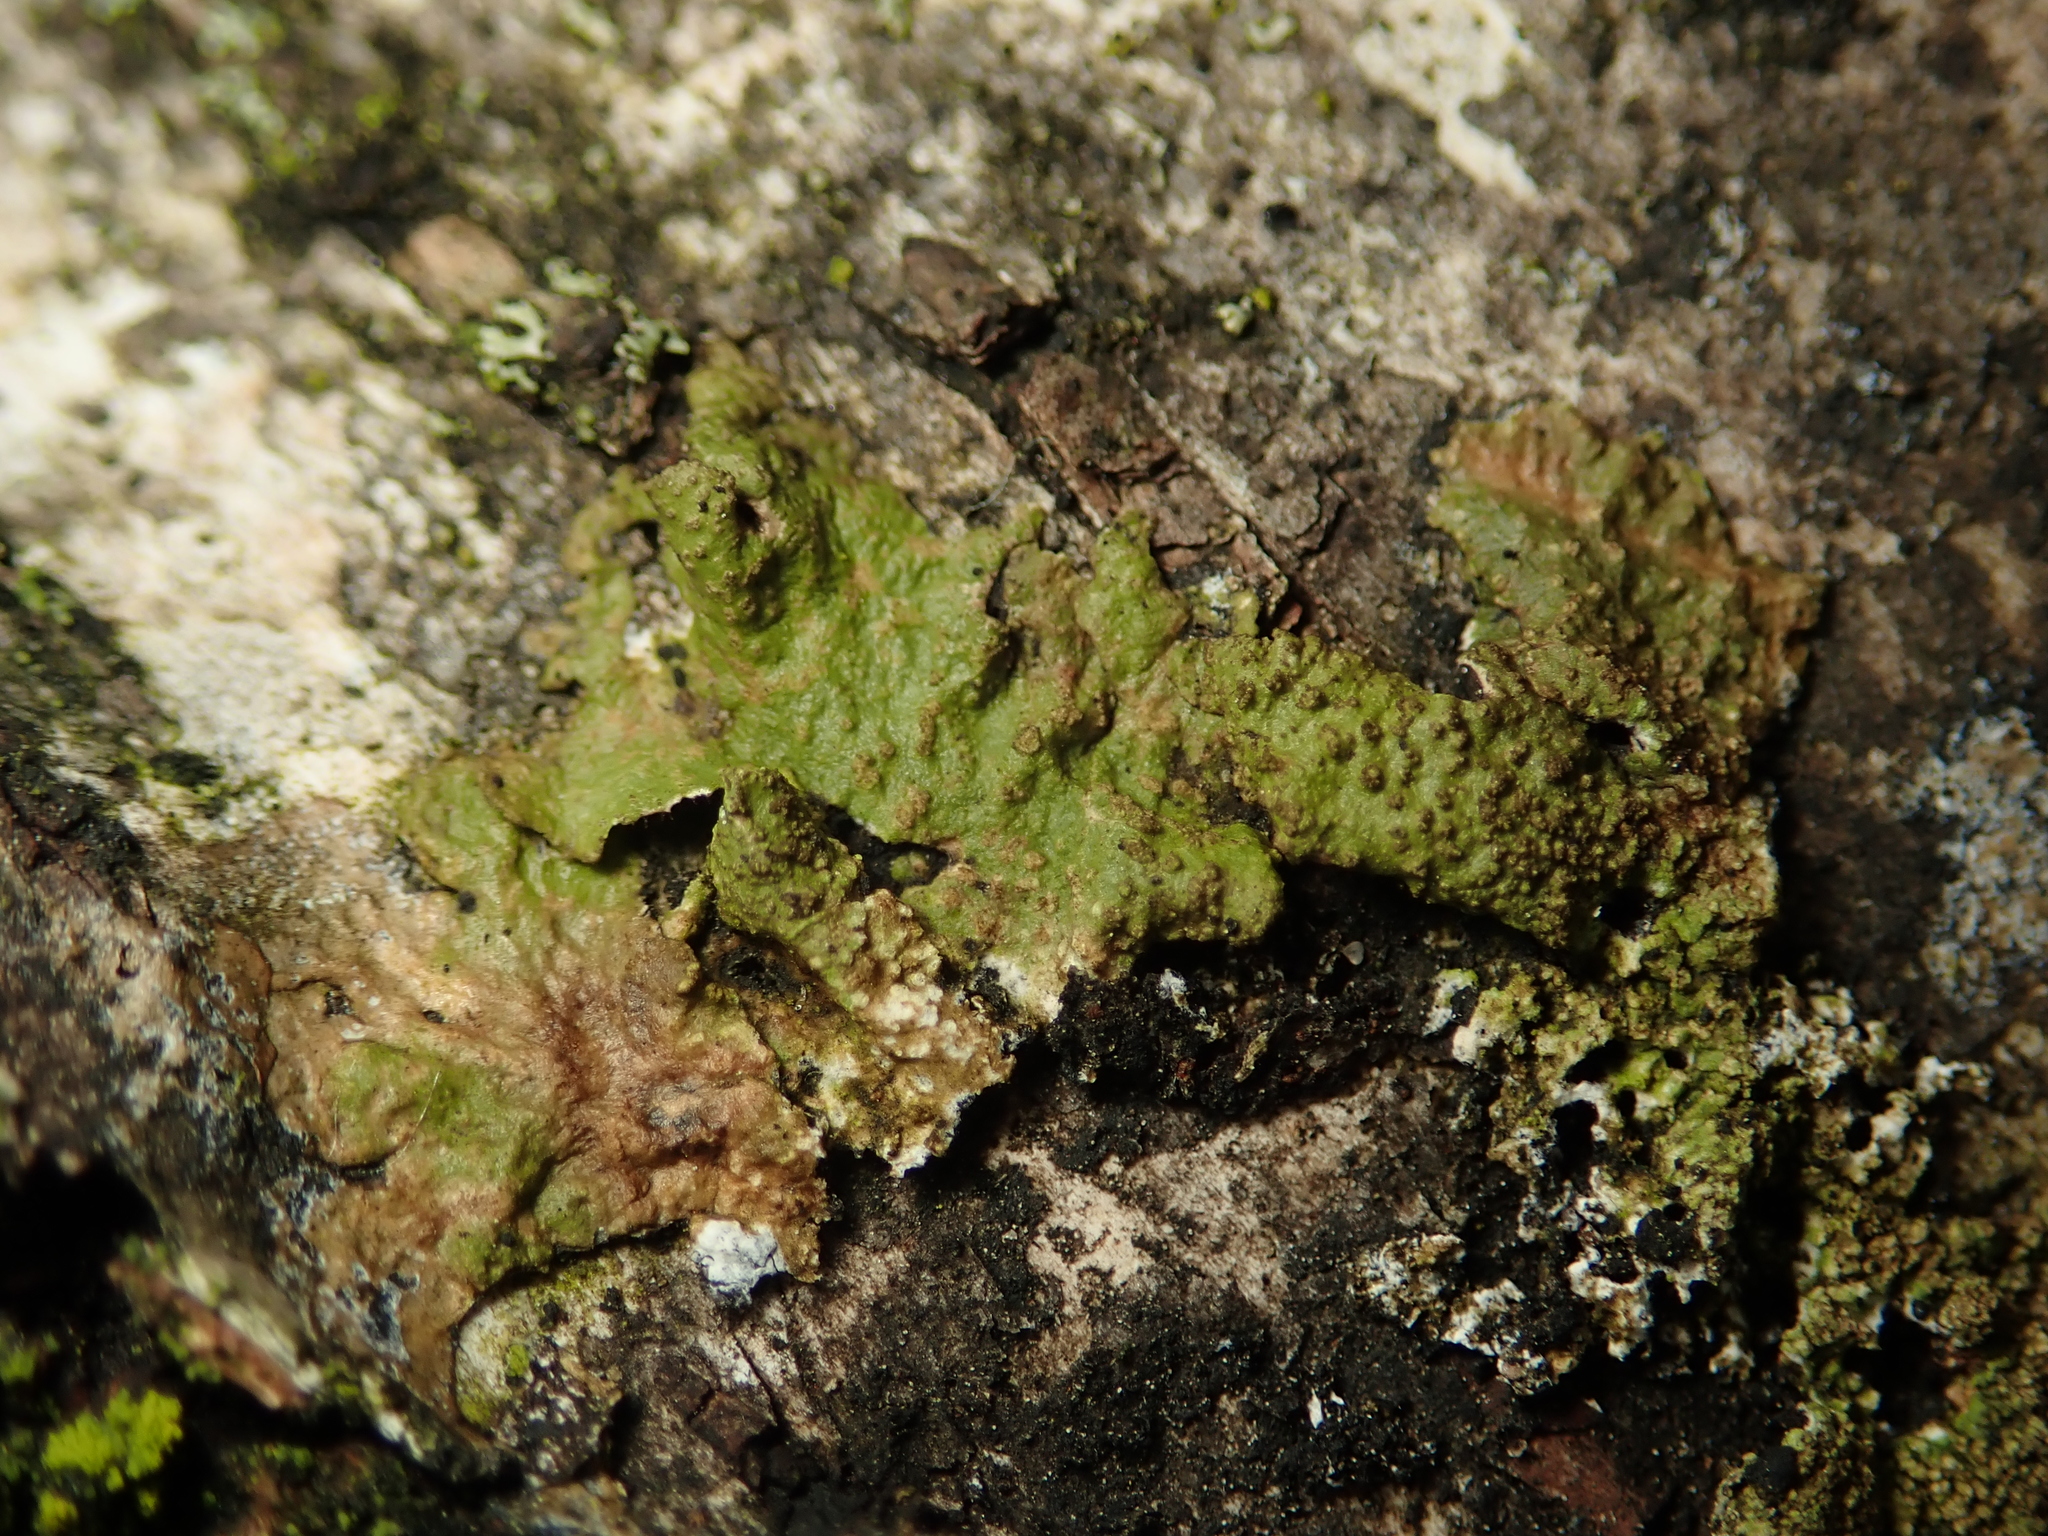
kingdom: Fungi
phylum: Ascomycota
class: Lecanoromycetes
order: Lecanorales
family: Parmeliaceae
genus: Melanelixia
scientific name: Melanelixia subaurifera
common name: Abraded camouflage lichen
